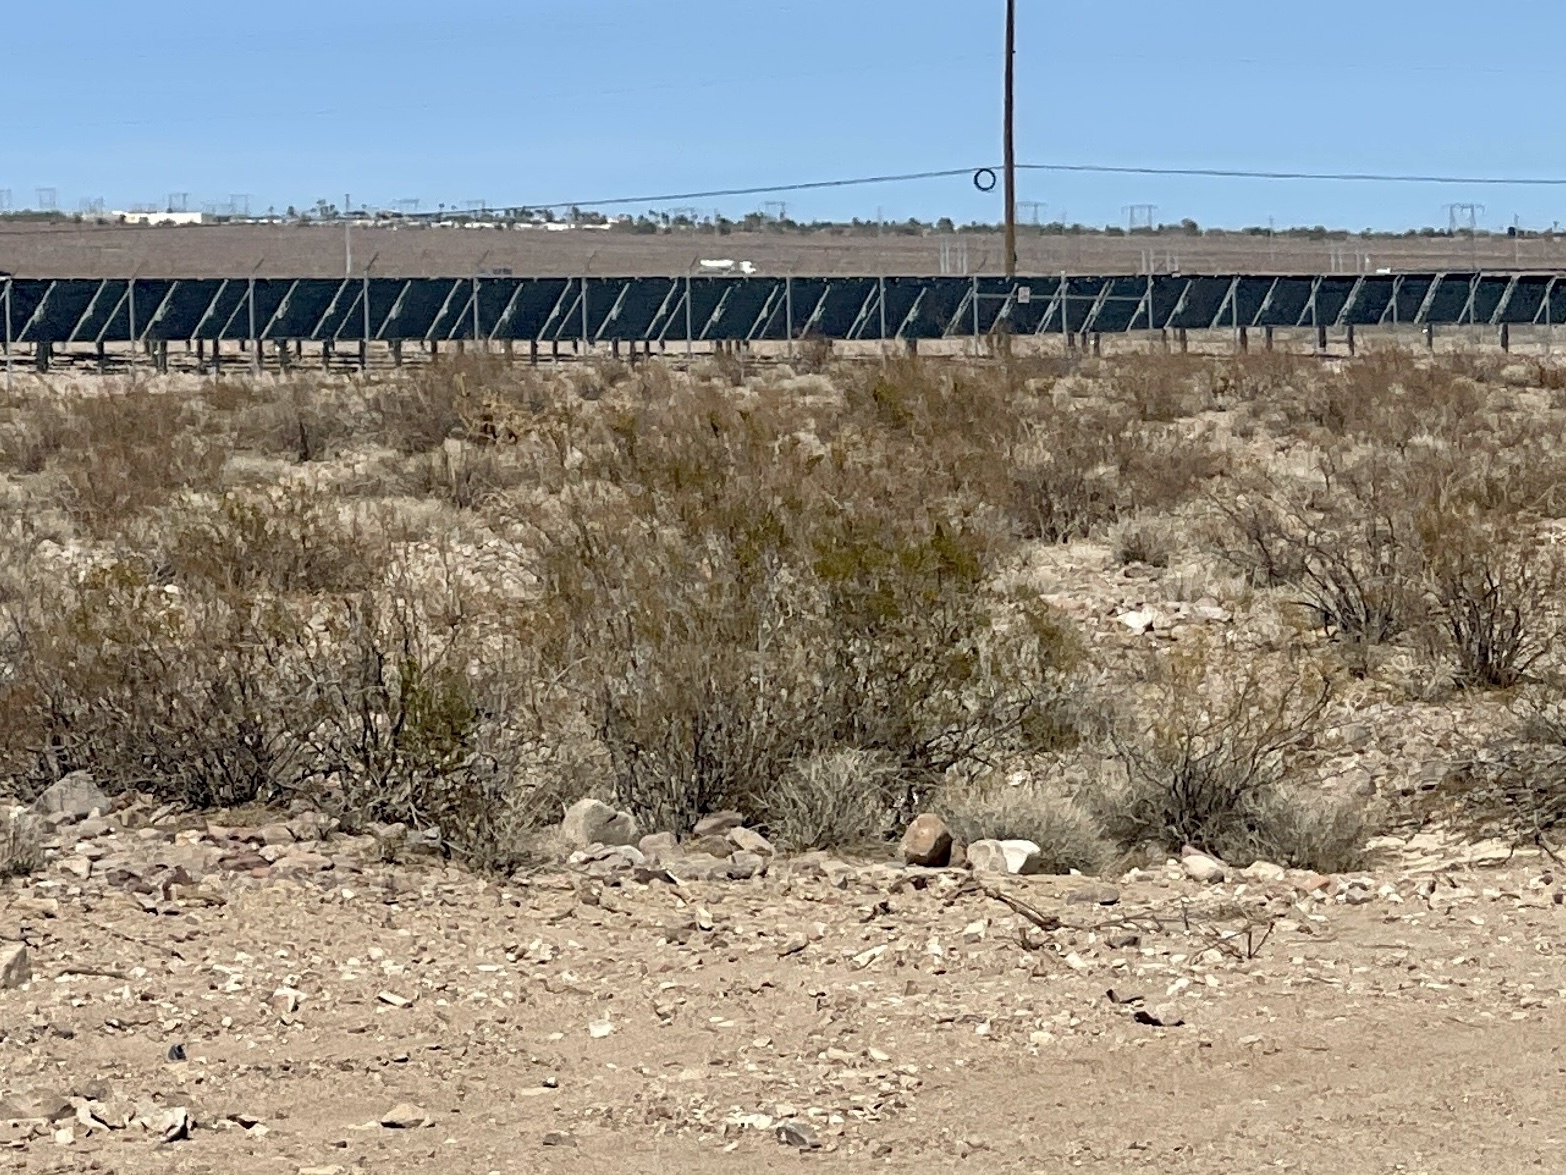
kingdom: Plantae
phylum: Tracheophyta
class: Magnoliopsida
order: Zygophyllales
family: Zygophyllaceae
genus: Larrea
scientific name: Larrea tridentata
